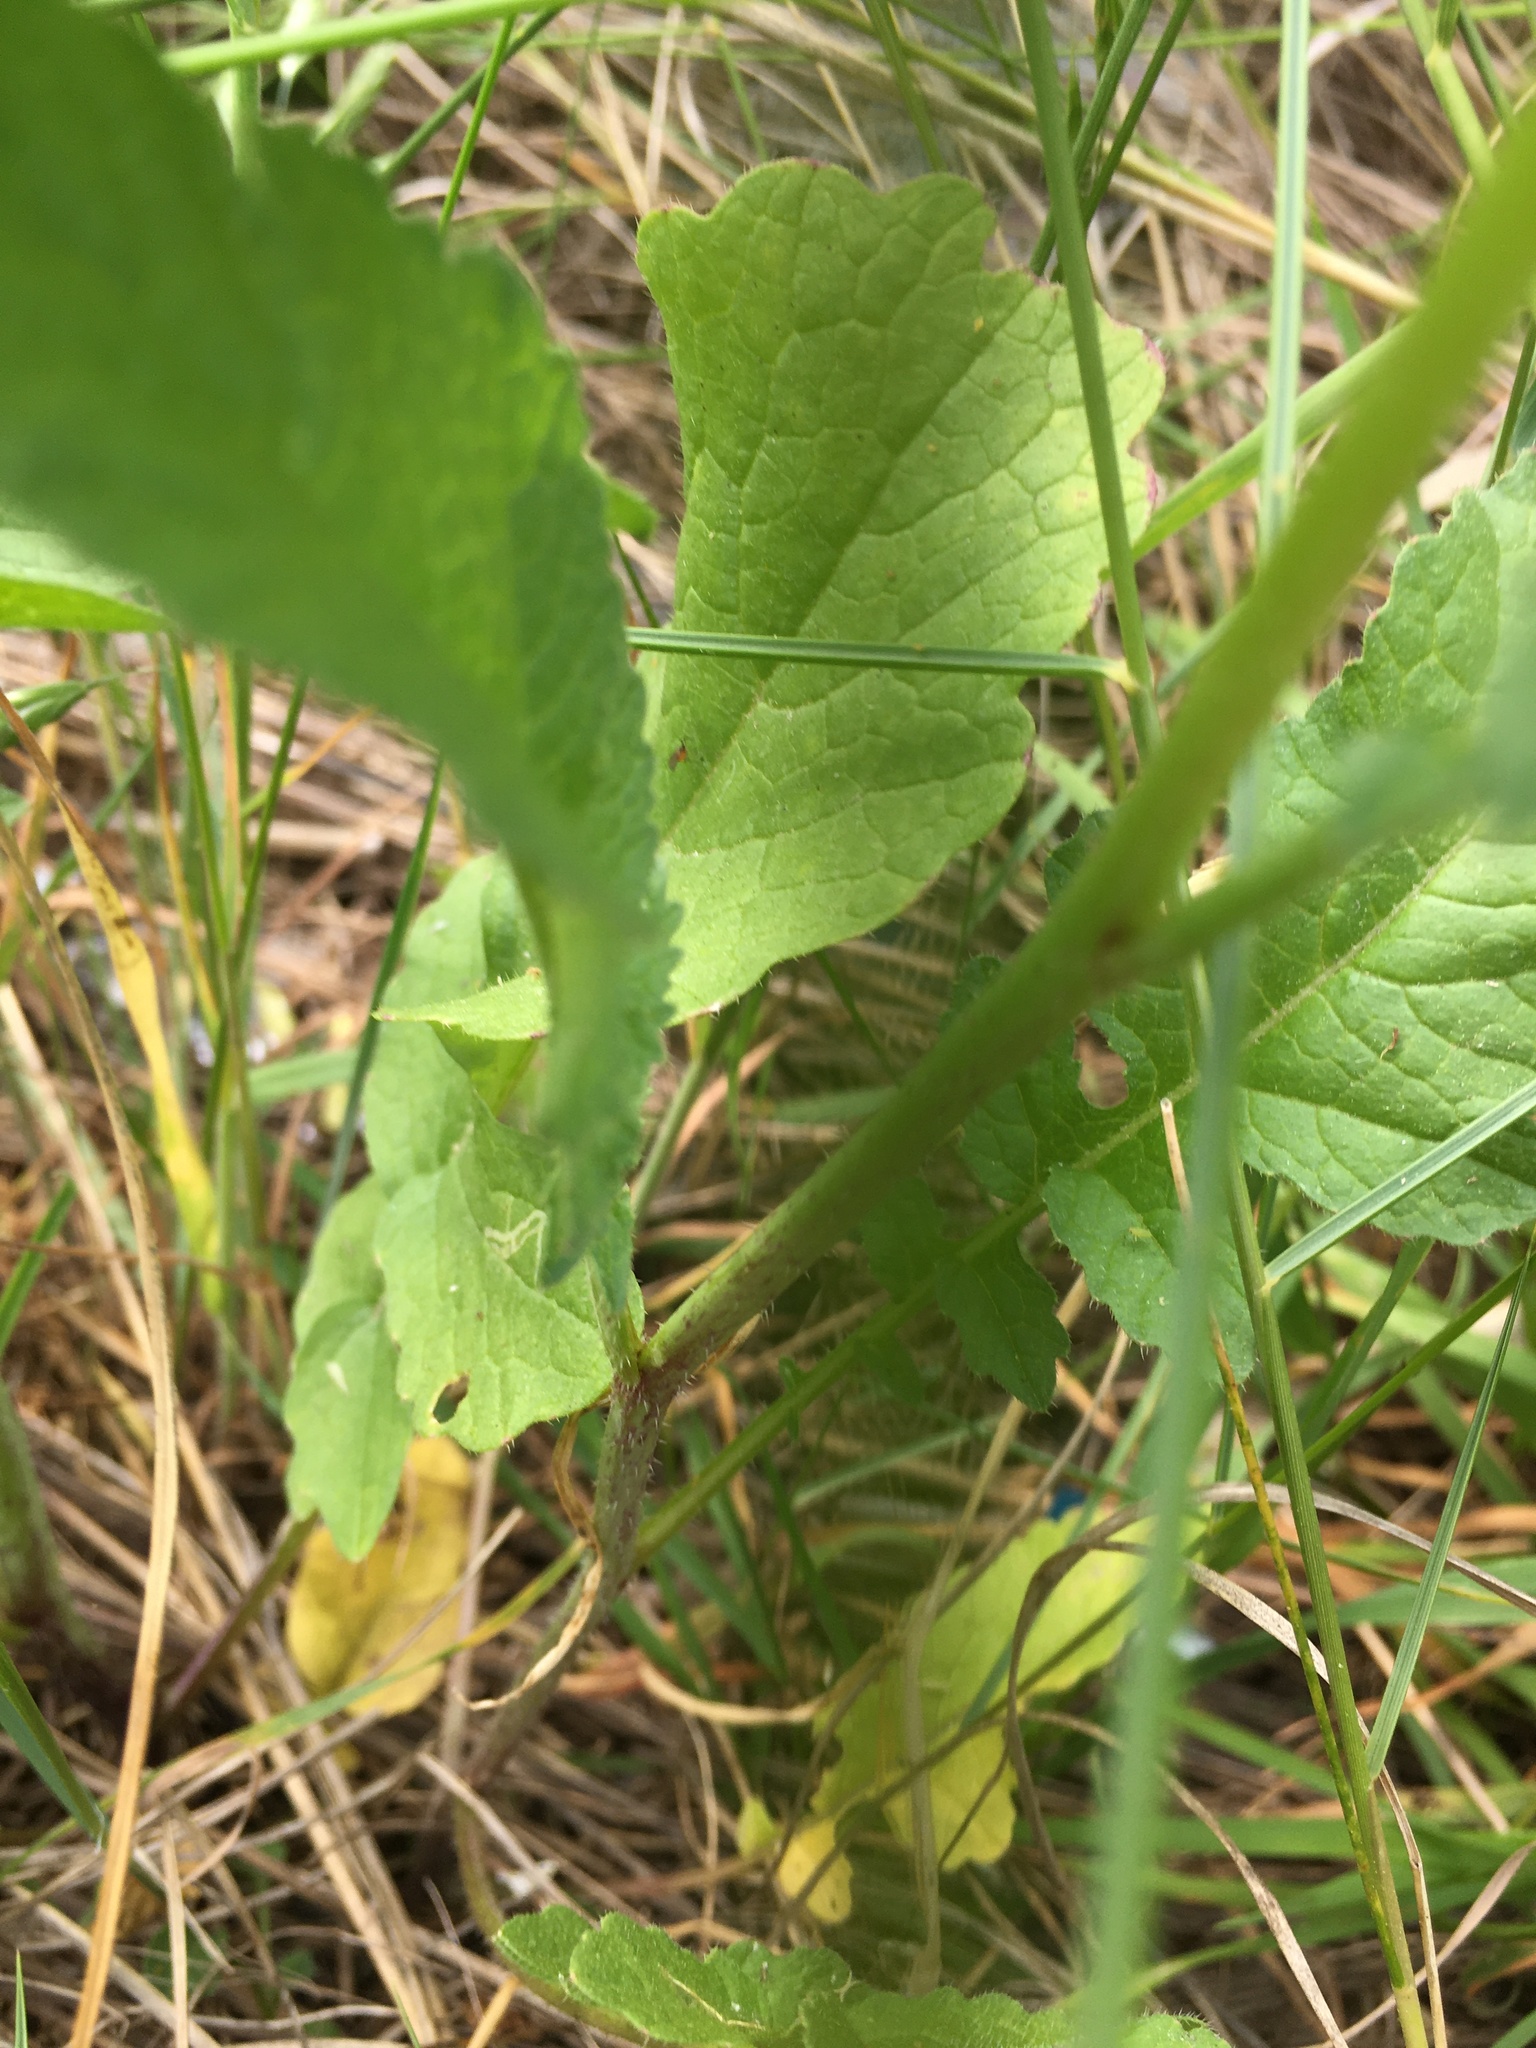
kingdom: Plantae
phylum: Tracheophyta
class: Magnoliopsida
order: Brassicales
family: Brassicaceae
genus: Raphanus
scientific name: Raphanus raphanistrum
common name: Wild radish
